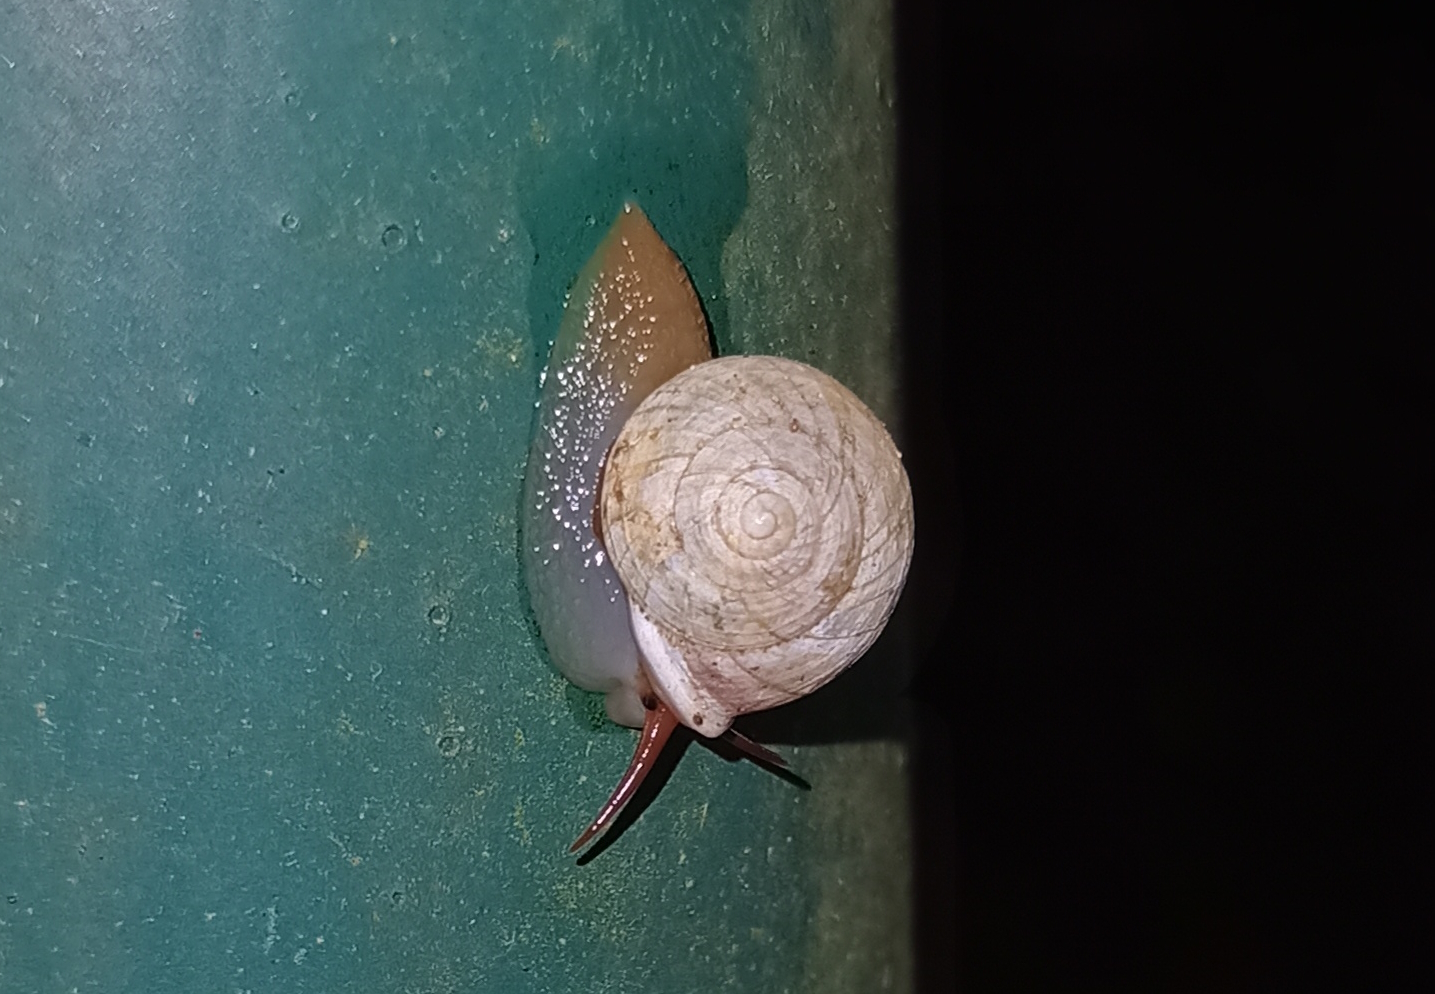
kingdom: Animalia
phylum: Mollusca
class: Gastropoda
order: Cycloneritida
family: Helicinidae
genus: Helicina
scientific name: Helicina boettgeri
